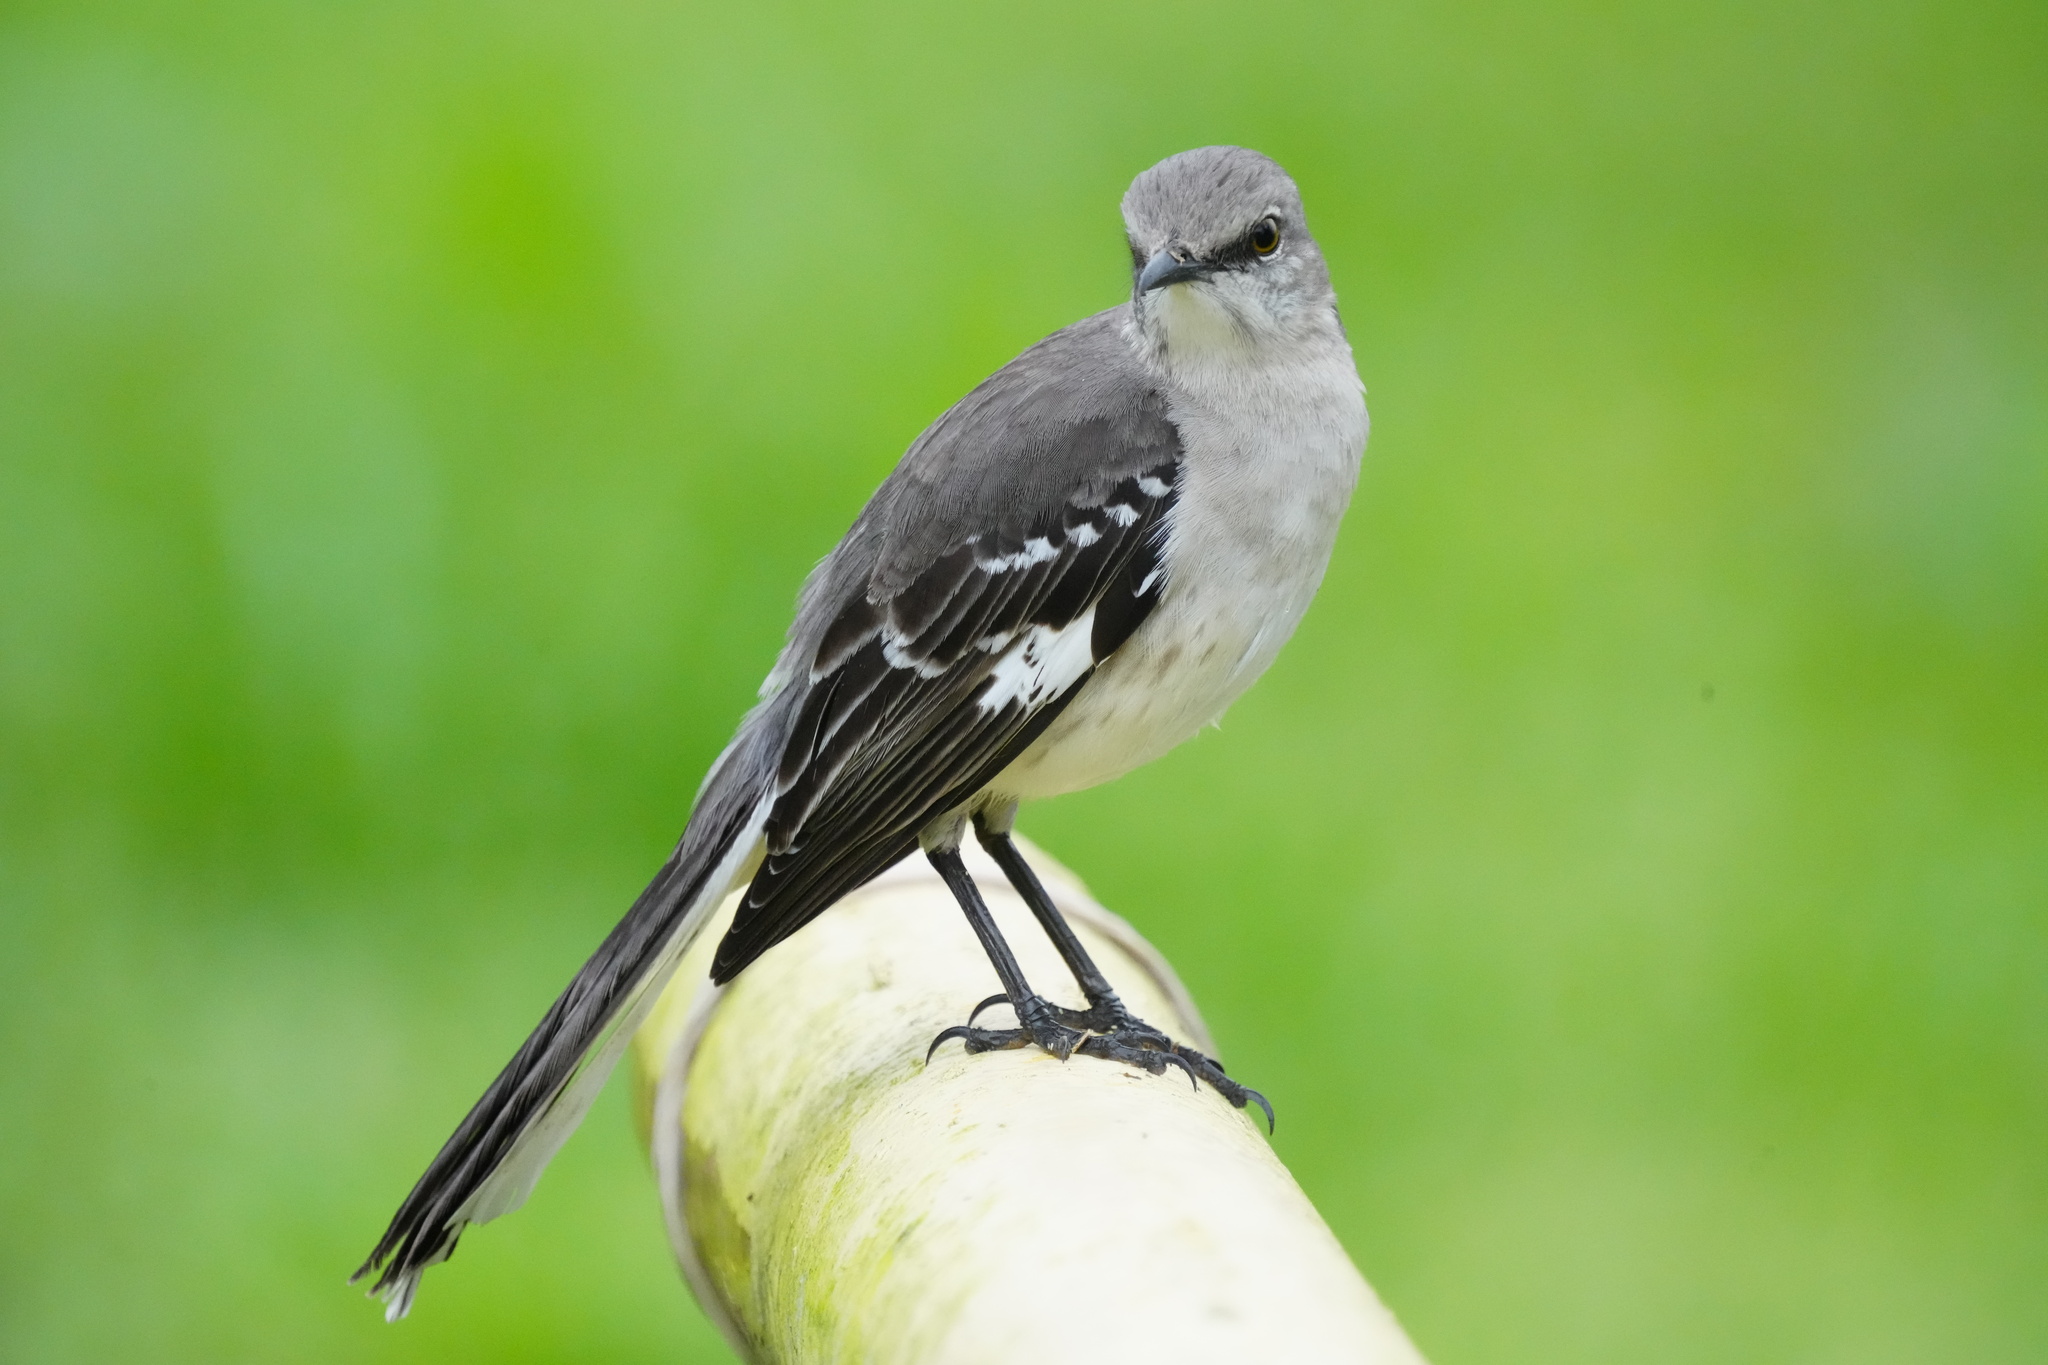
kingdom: Animalia
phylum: Chordata
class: Aves
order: Passeriformes
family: Mimidae
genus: Mimus
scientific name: Mimus polyglottos
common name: Northern mockingbird
